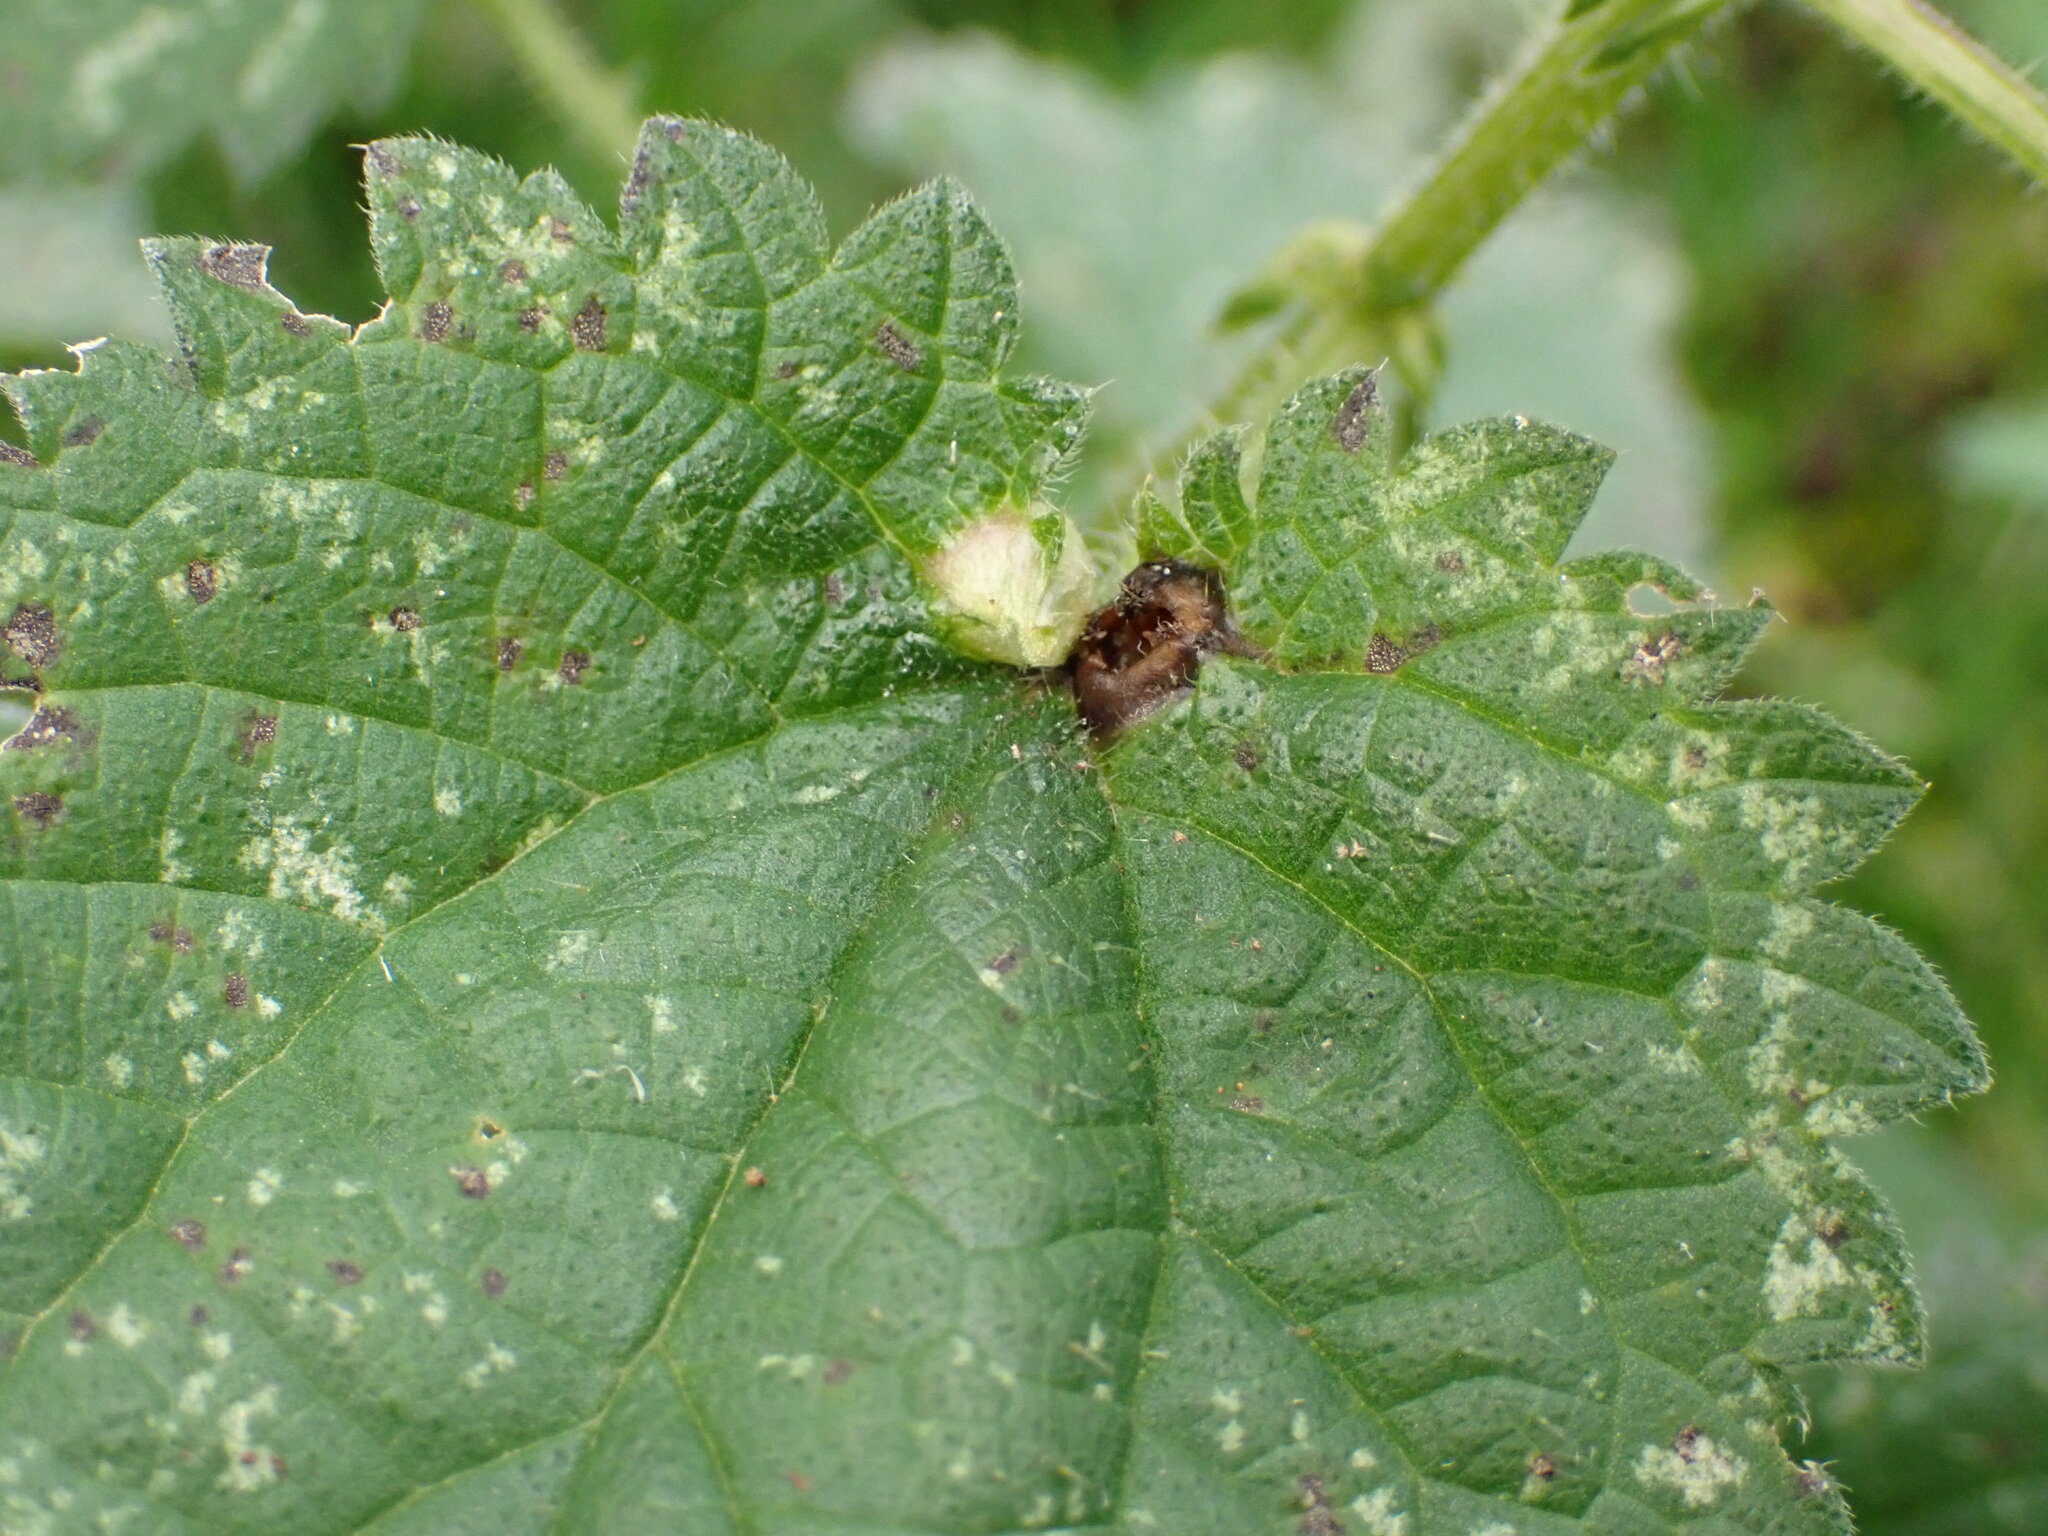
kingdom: Animalia
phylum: Arthropoda
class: Insecta
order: Diptera
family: Cecidomyiidae
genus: Dasineura
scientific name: Dasineura urticae
